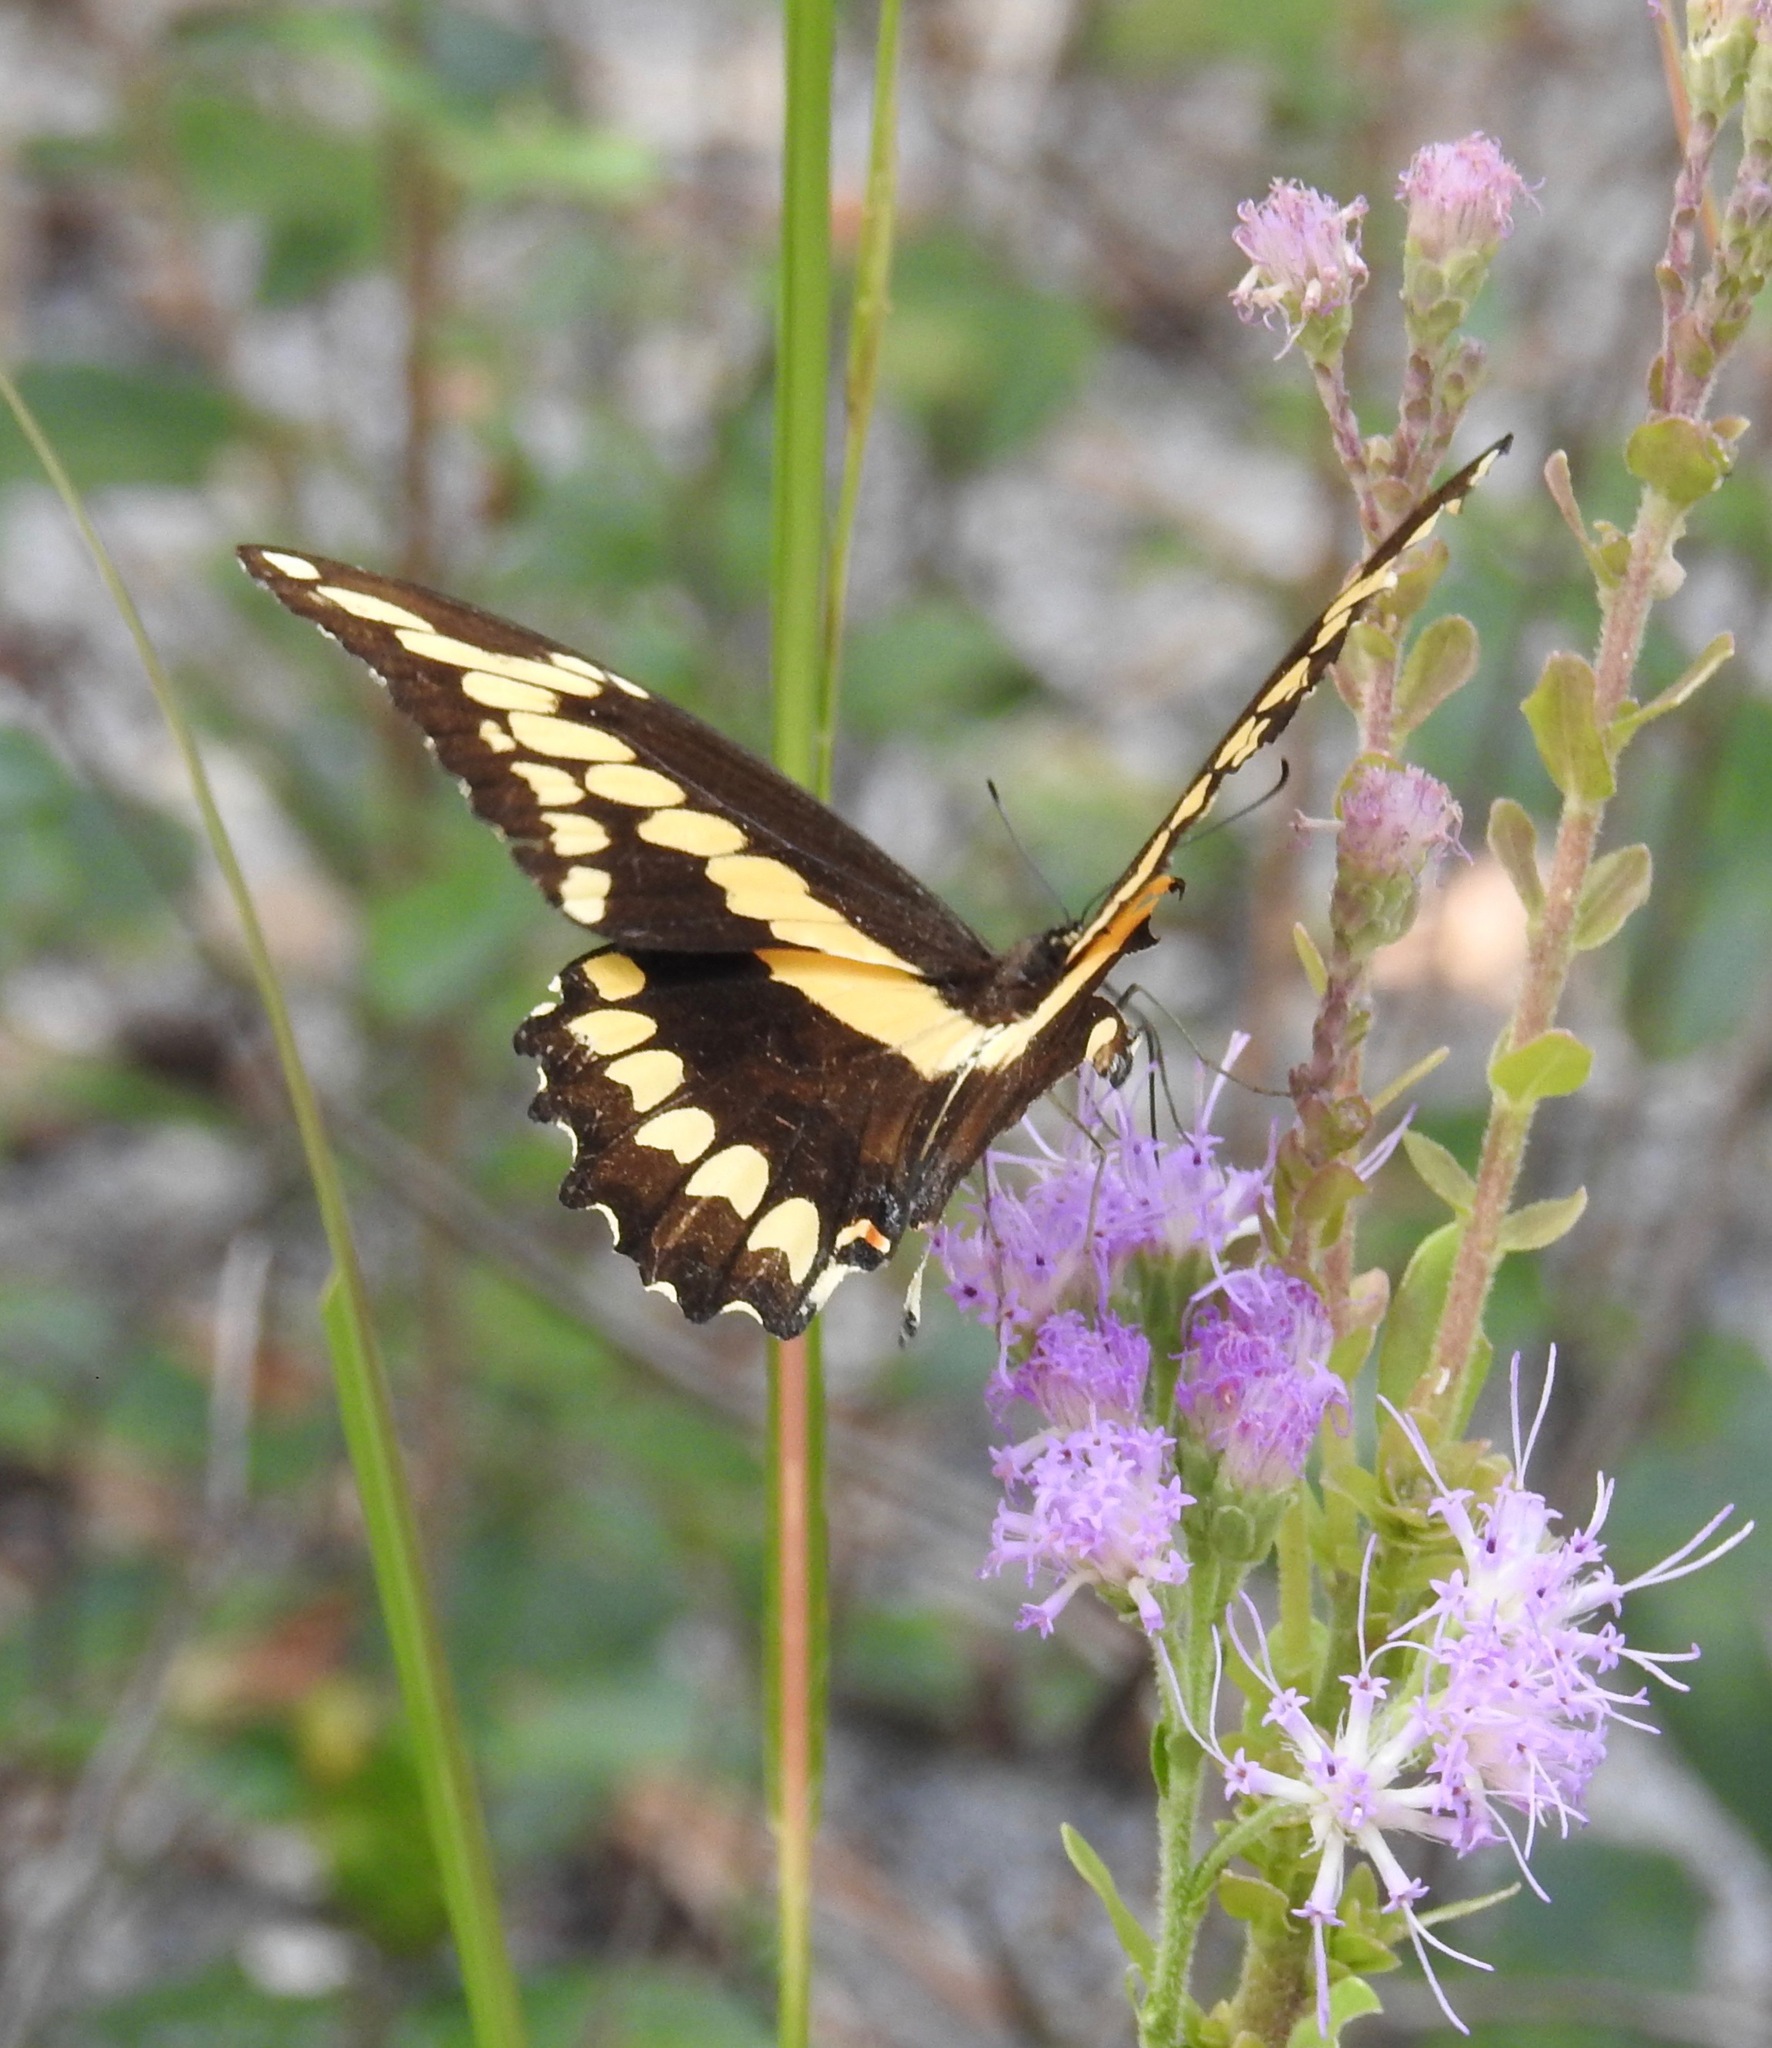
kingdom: Animalia
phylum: Arthropoda
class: Insecta
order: Lepidoptera
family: Papilionidae
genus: Papilio
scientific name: Papilio cresphontes
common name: Giant swallowtail
